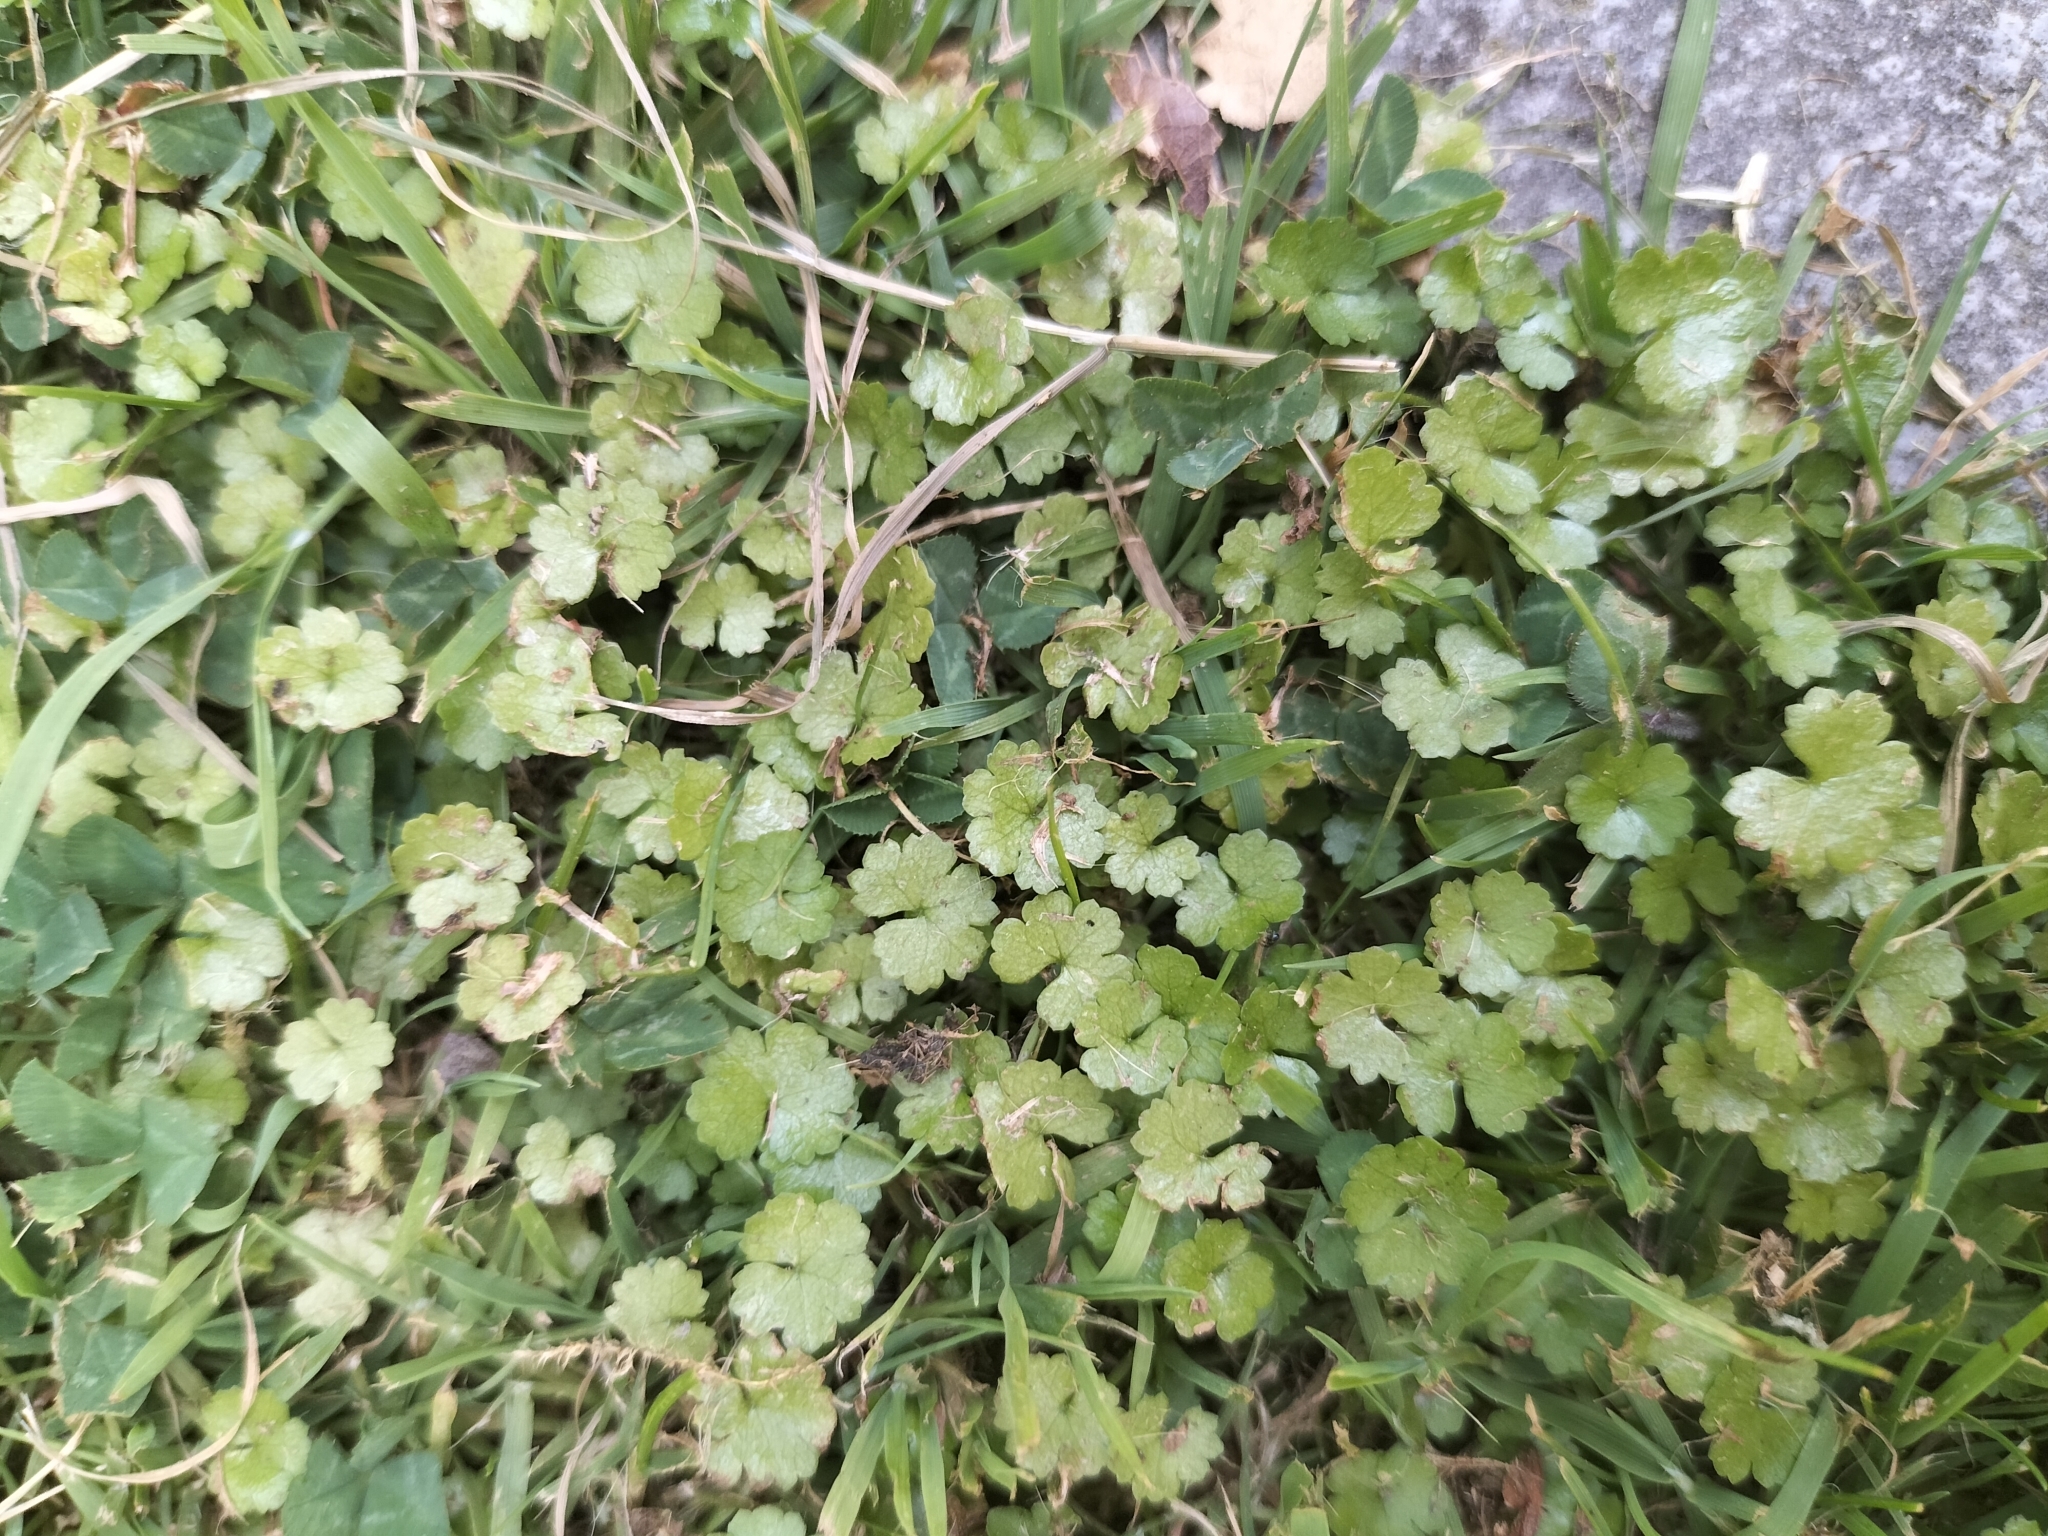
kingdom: Plantae
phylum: Tracheophyta
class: Magnoliopsida
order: Apiales
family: Araliaceae
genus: Hydrocotyle
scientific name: Hydrocotyle microphylla
